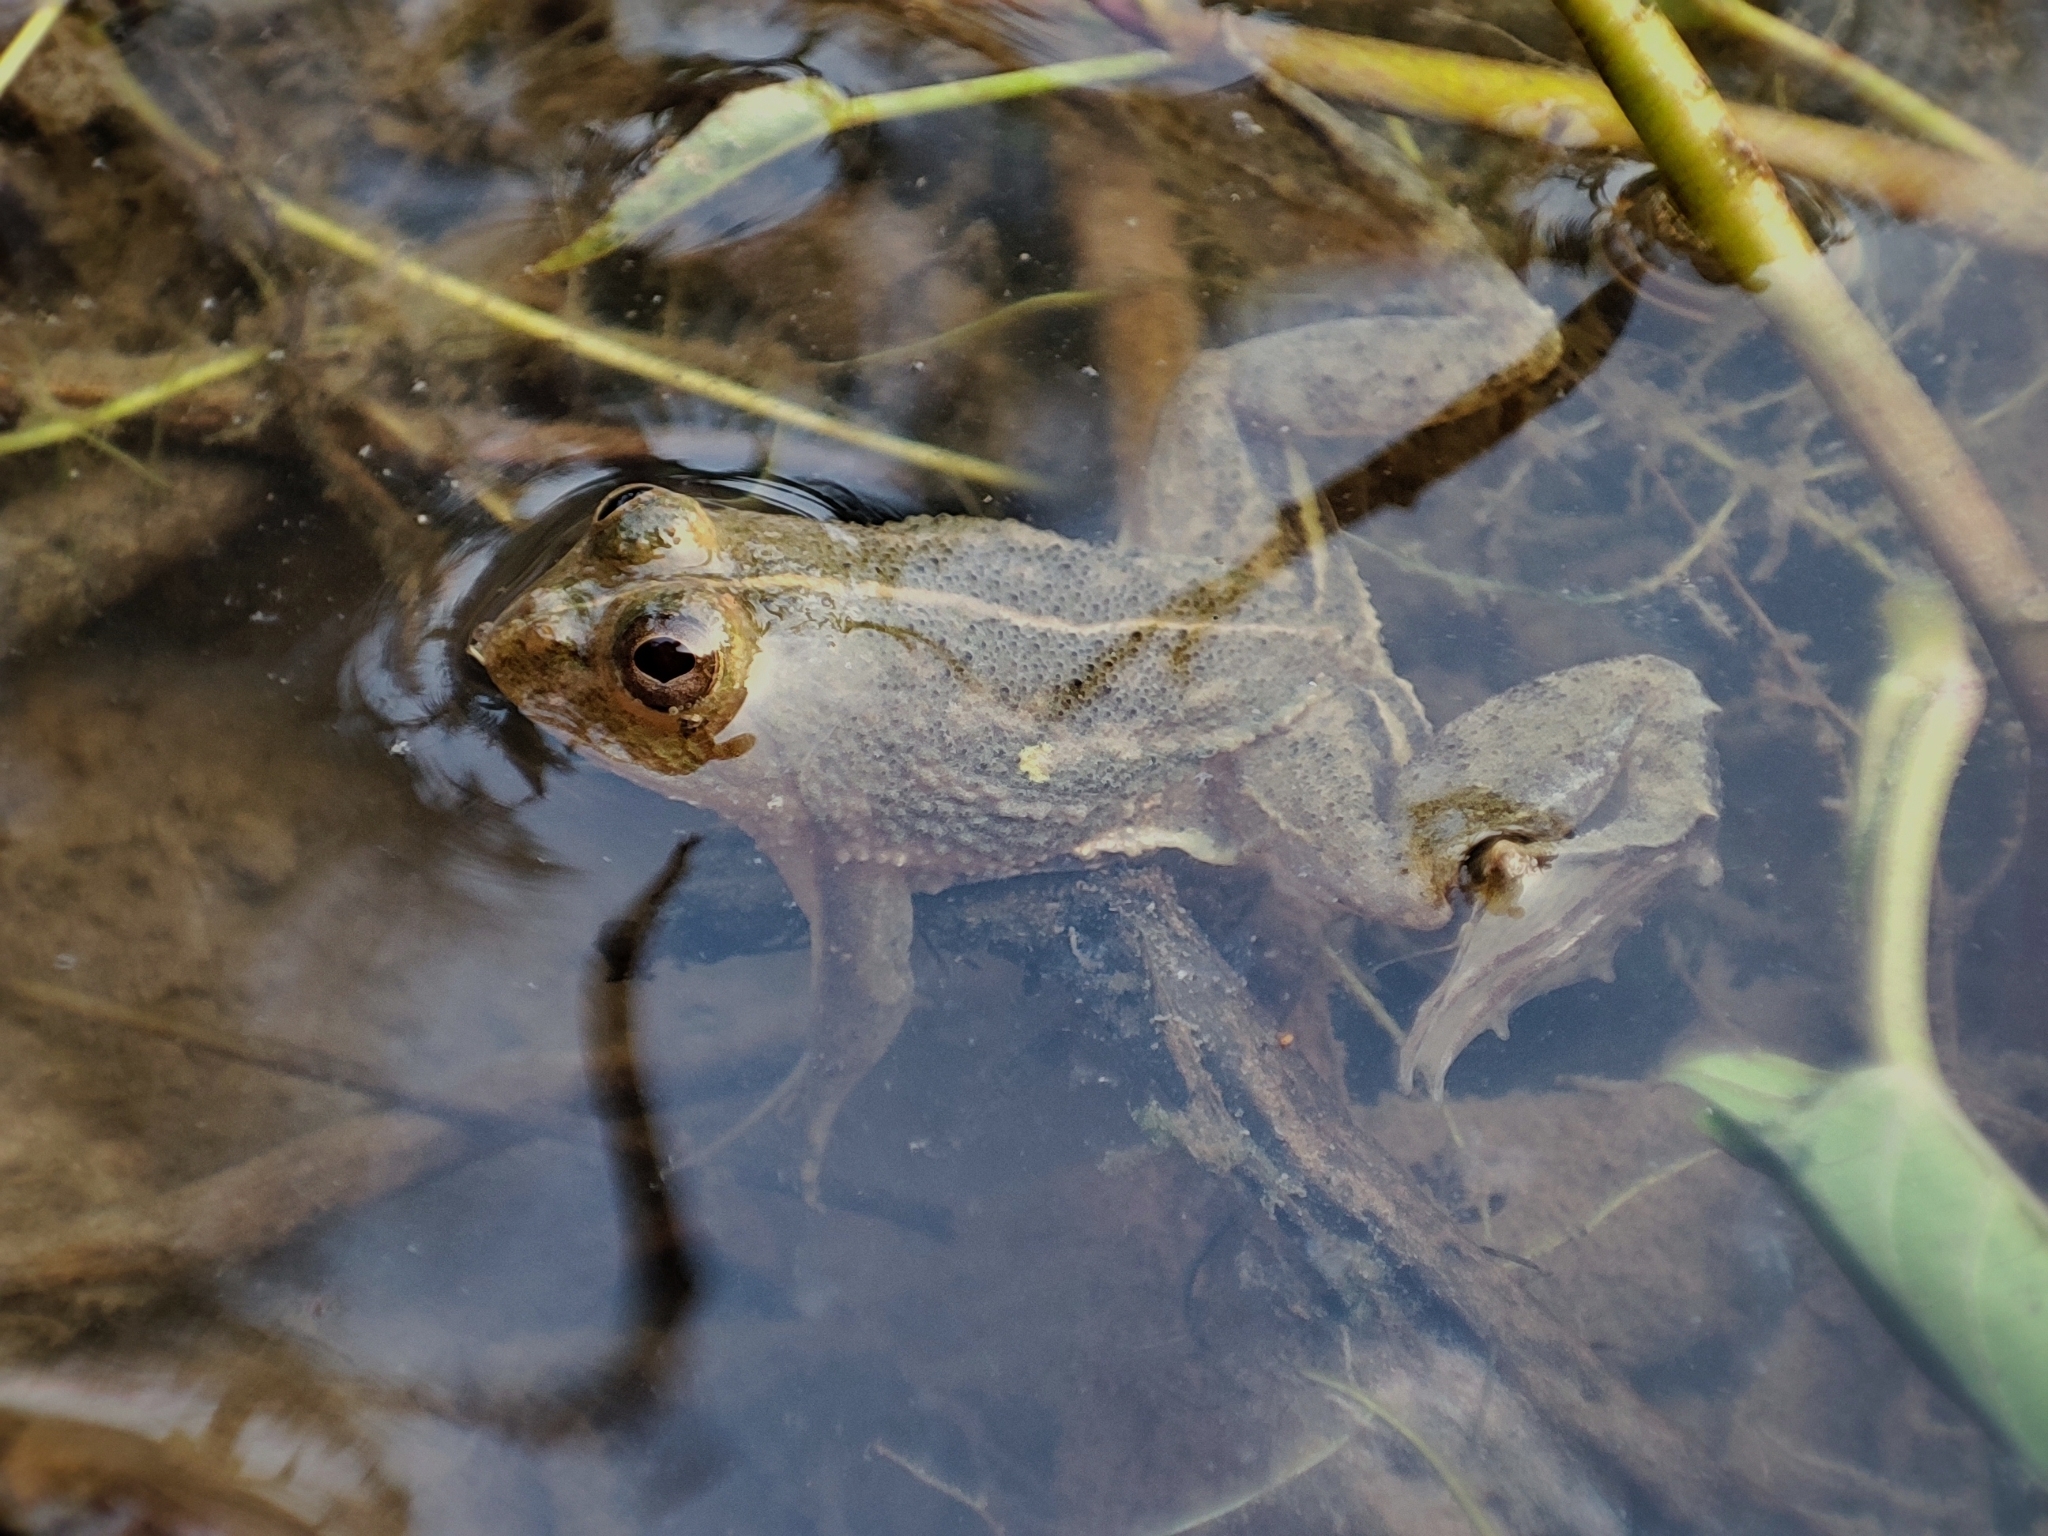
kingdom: Animalia
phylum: Chordata
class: Amphibia
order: Anura
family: Dicroglossidae
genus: Occidozyga
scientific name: Occidozyga lima
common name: Rough-skinned puddle frog/yellow-bellied puddle frog/green puddle frog/pointed-tongued floating frog
